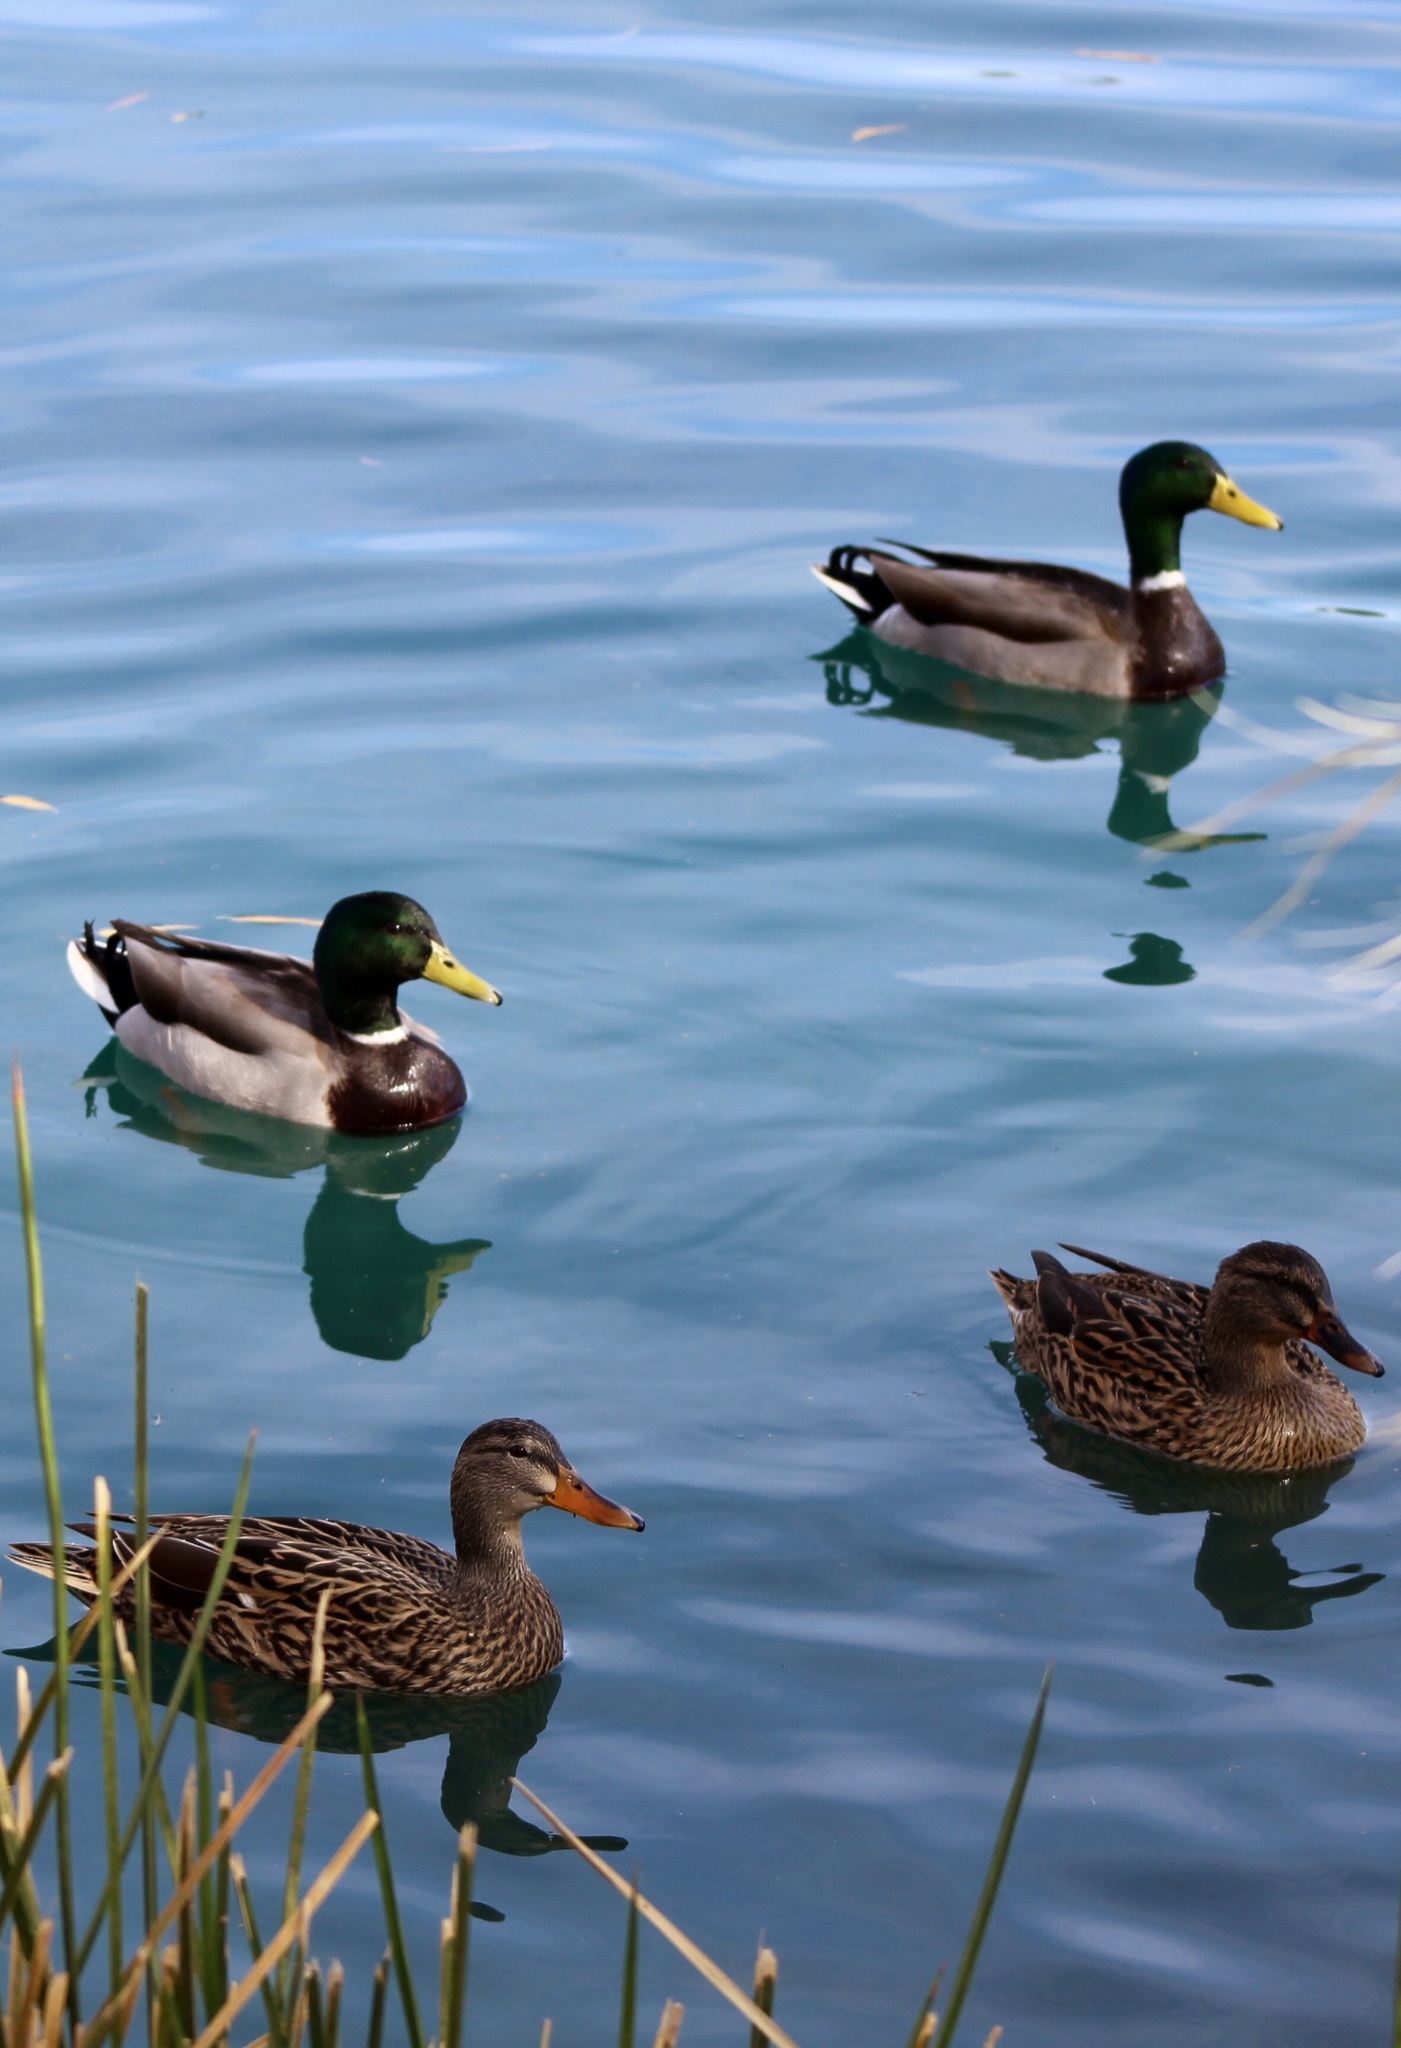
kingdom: Animalia
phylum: Chordata
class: Aves
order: Anseriformes
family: Anatidae
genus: Anas
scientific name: Anas platyrhynchos
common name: Mallard
